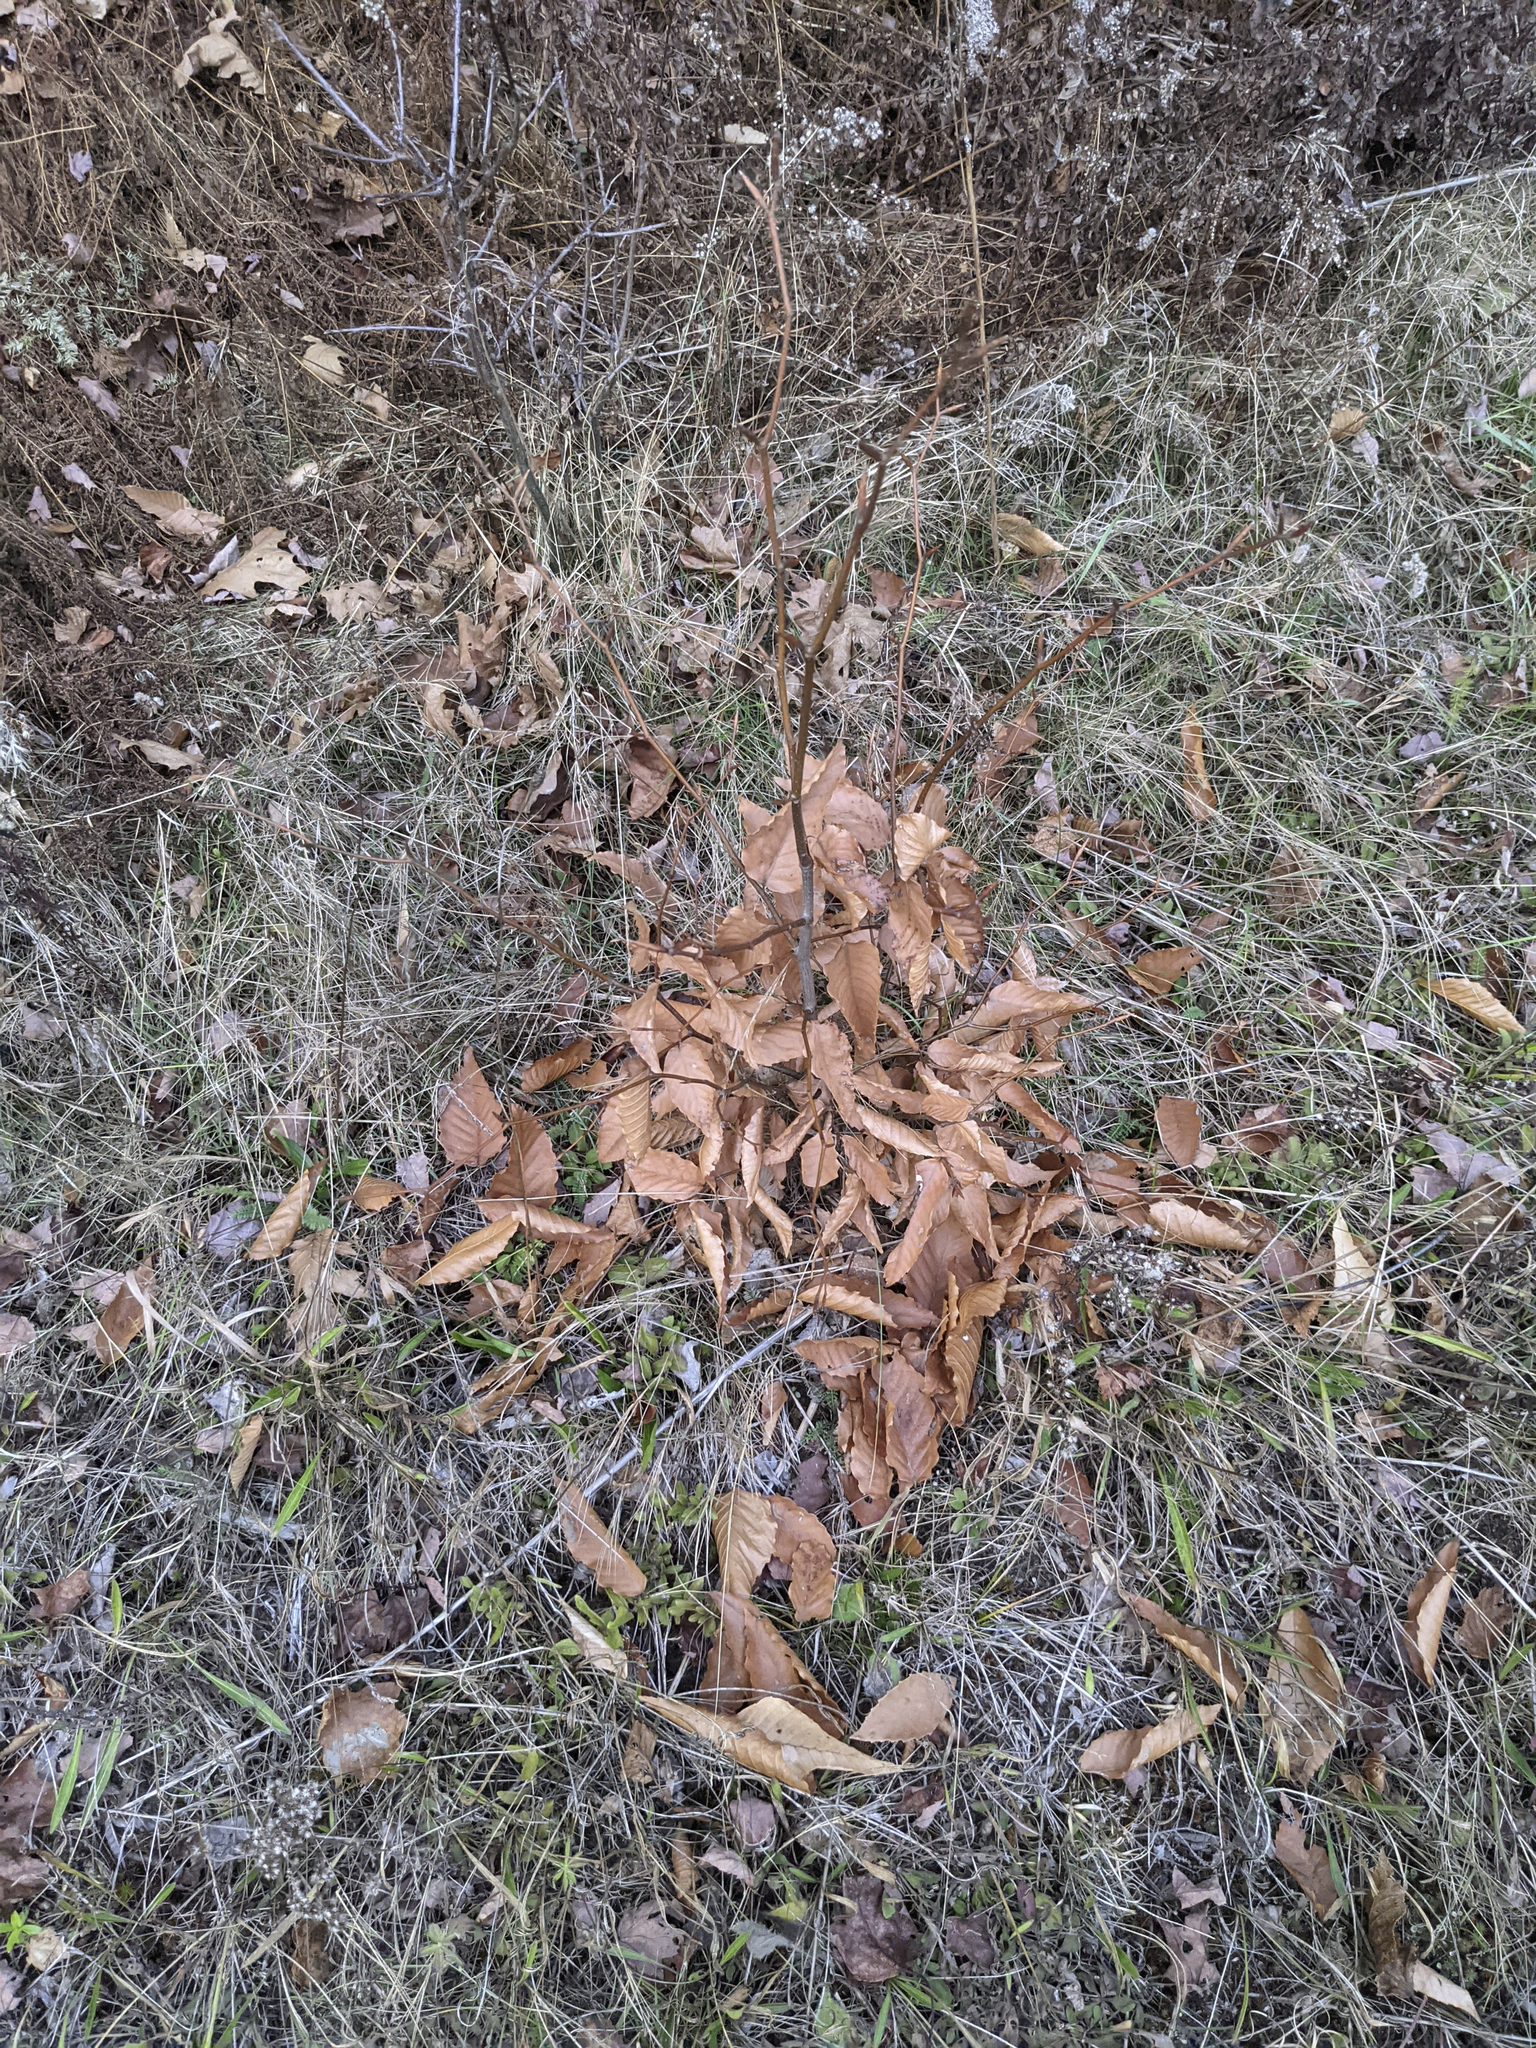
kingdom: Plantae
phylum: Tracheophyta
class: Magnoliopsida
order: Fagales
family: Fagaceae
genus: Fagus
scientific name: Fagus grandifolia
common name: American beech
